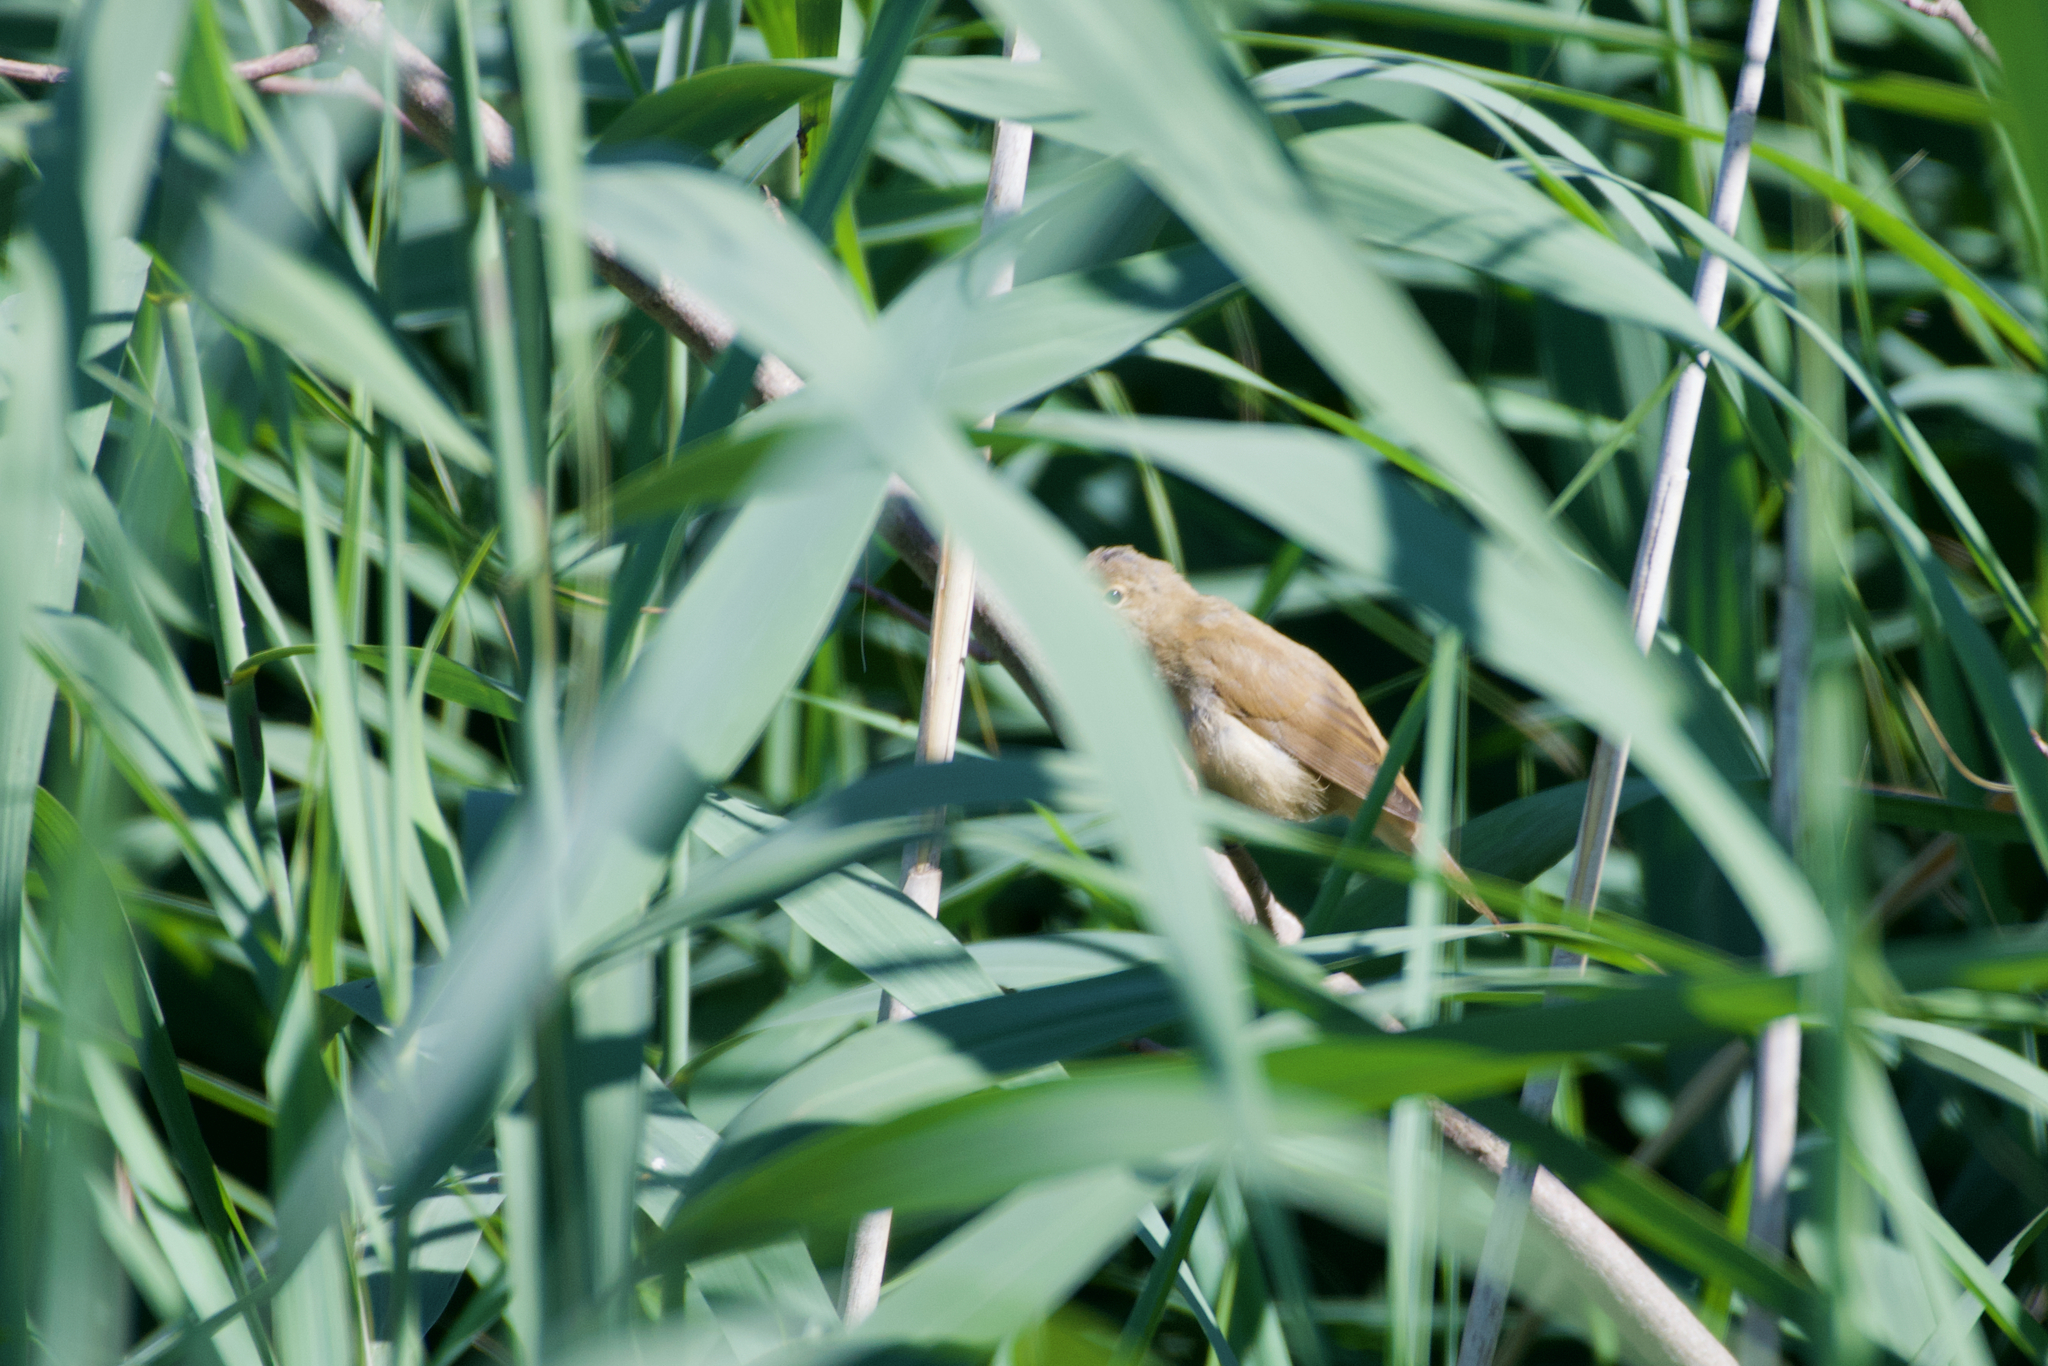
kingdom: Animalia
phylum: Chordata
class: Aves
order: Passeriformes
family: Acrocephalidae
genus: Acrocephalus
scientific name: Acrocephalus scirpaceus
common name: Eurasian reed warbler
